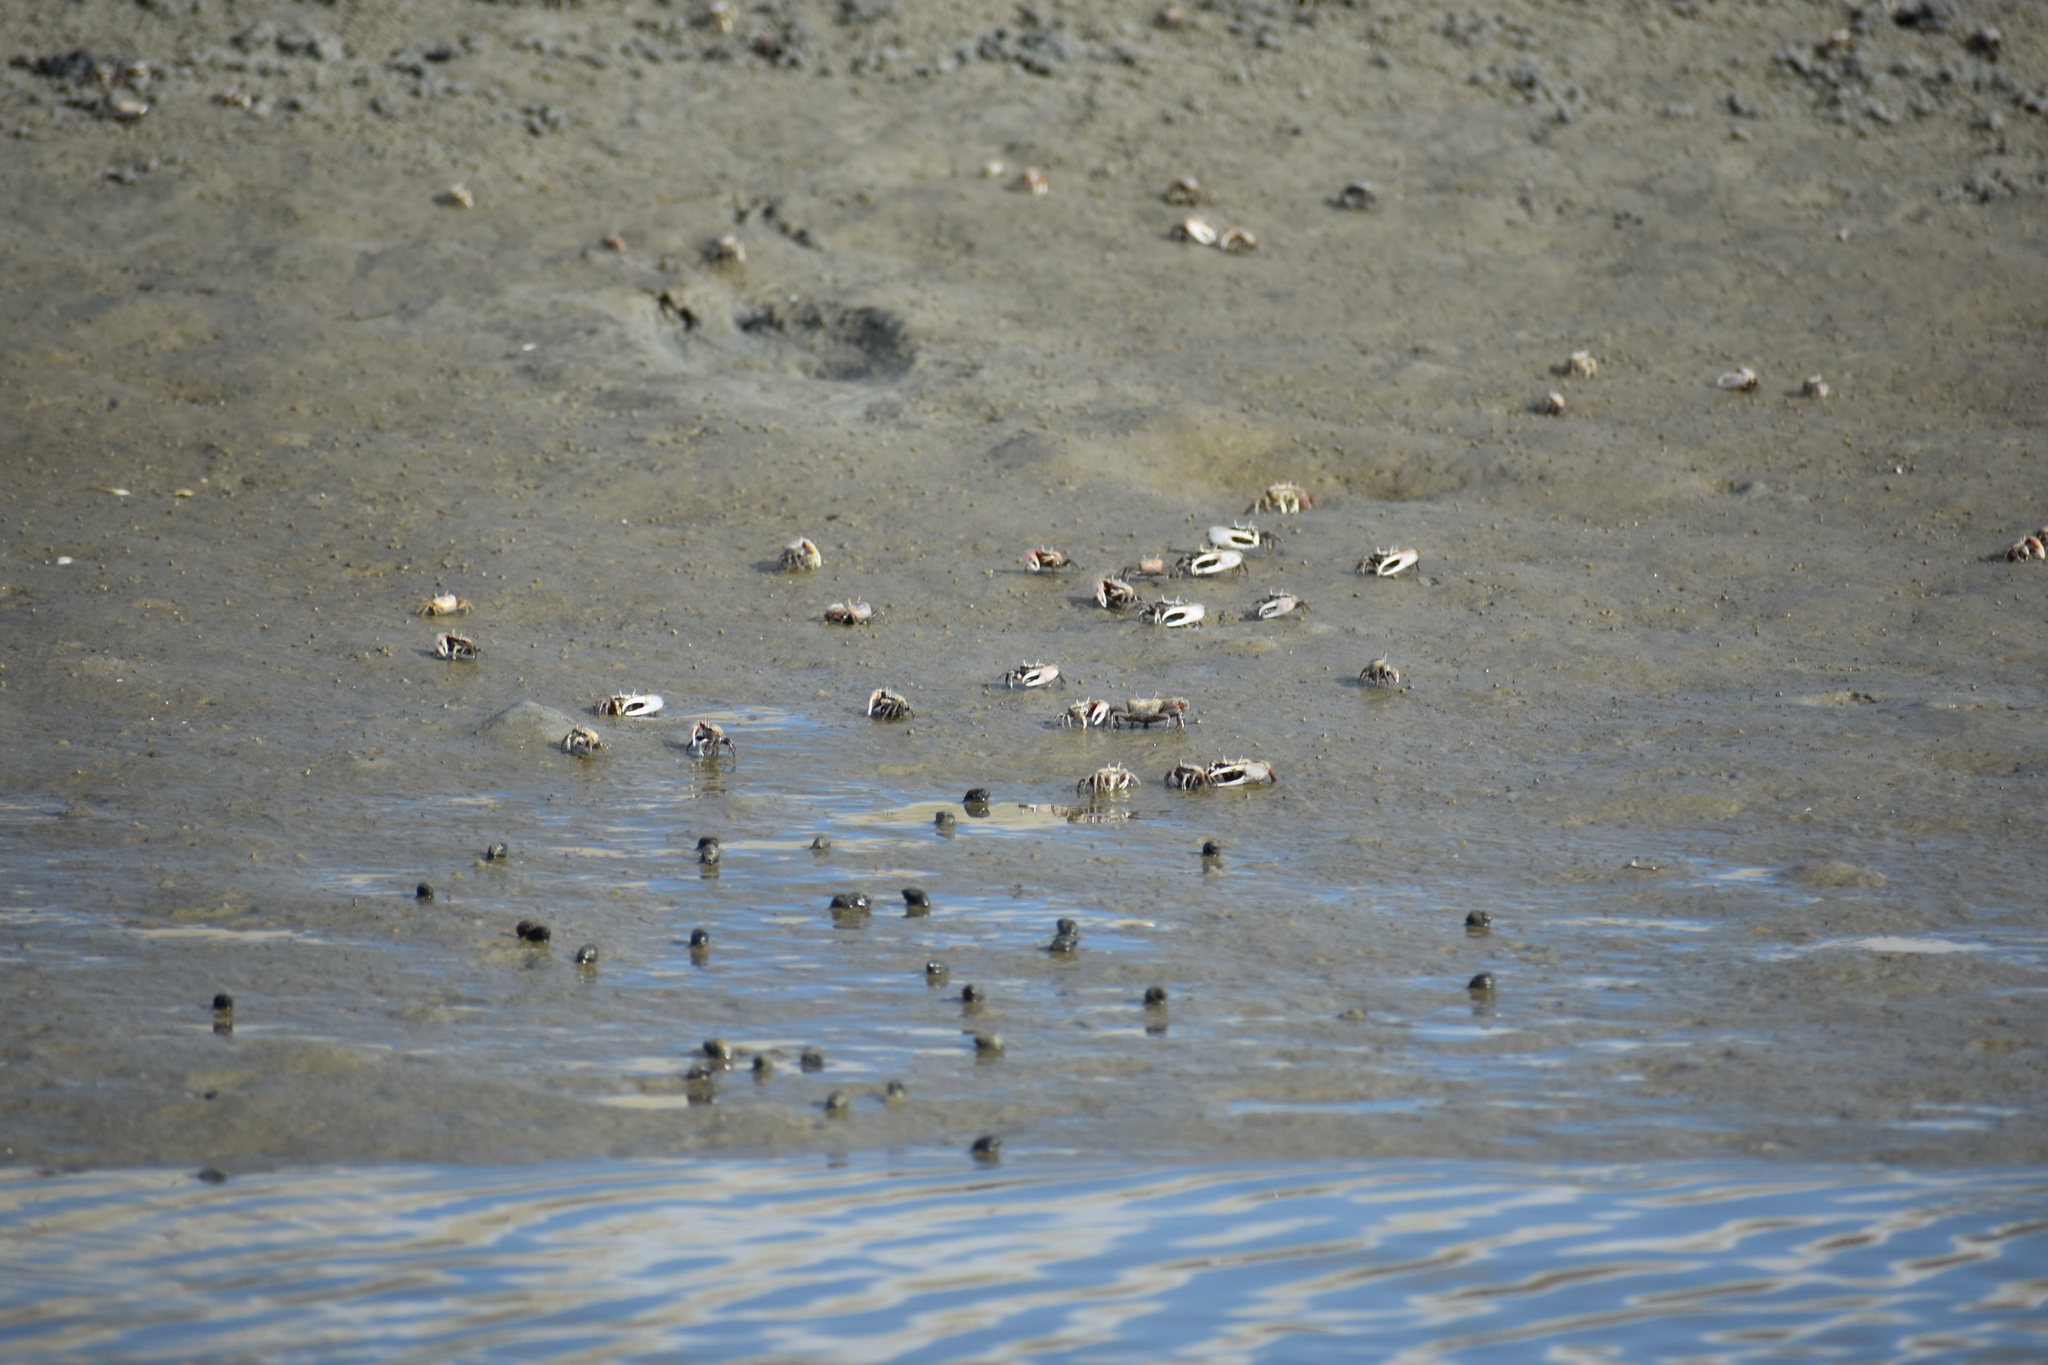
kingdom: Animalia
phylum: Arthropoda
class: Malacostraca
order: Decapoda
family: Ocypodidae
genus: Leptuca
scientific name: Leptuca pugilator
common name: Atlantic sand fiddler crab
